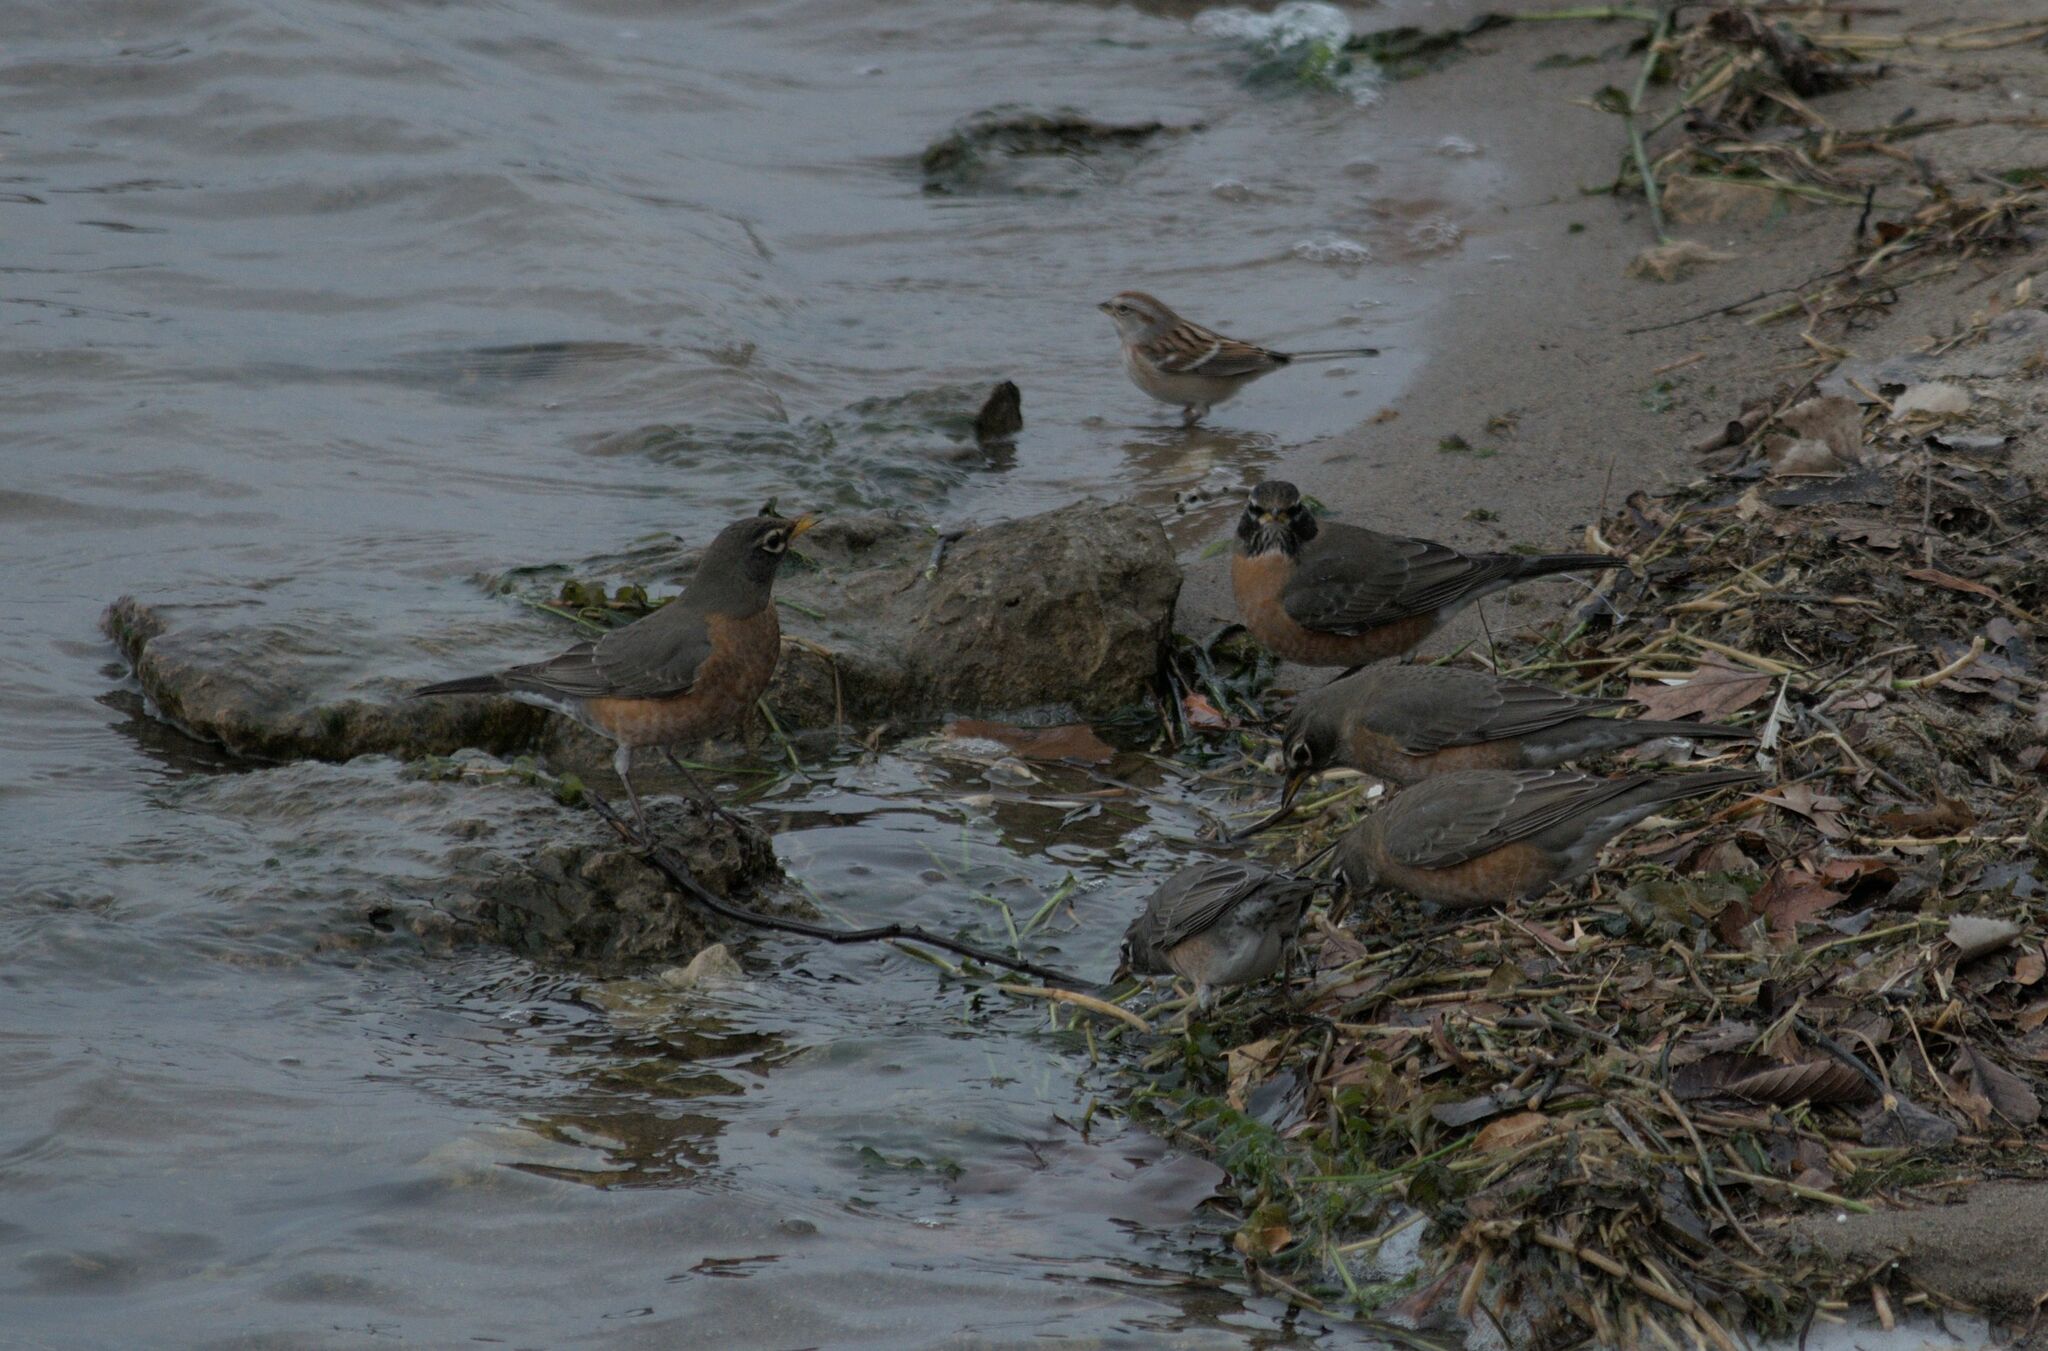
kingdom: Animalia
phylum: Chordata
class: Aves
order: Passeriformes
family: Turdidae
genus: Turdus
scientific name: Turdus migratorius
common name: American robin
